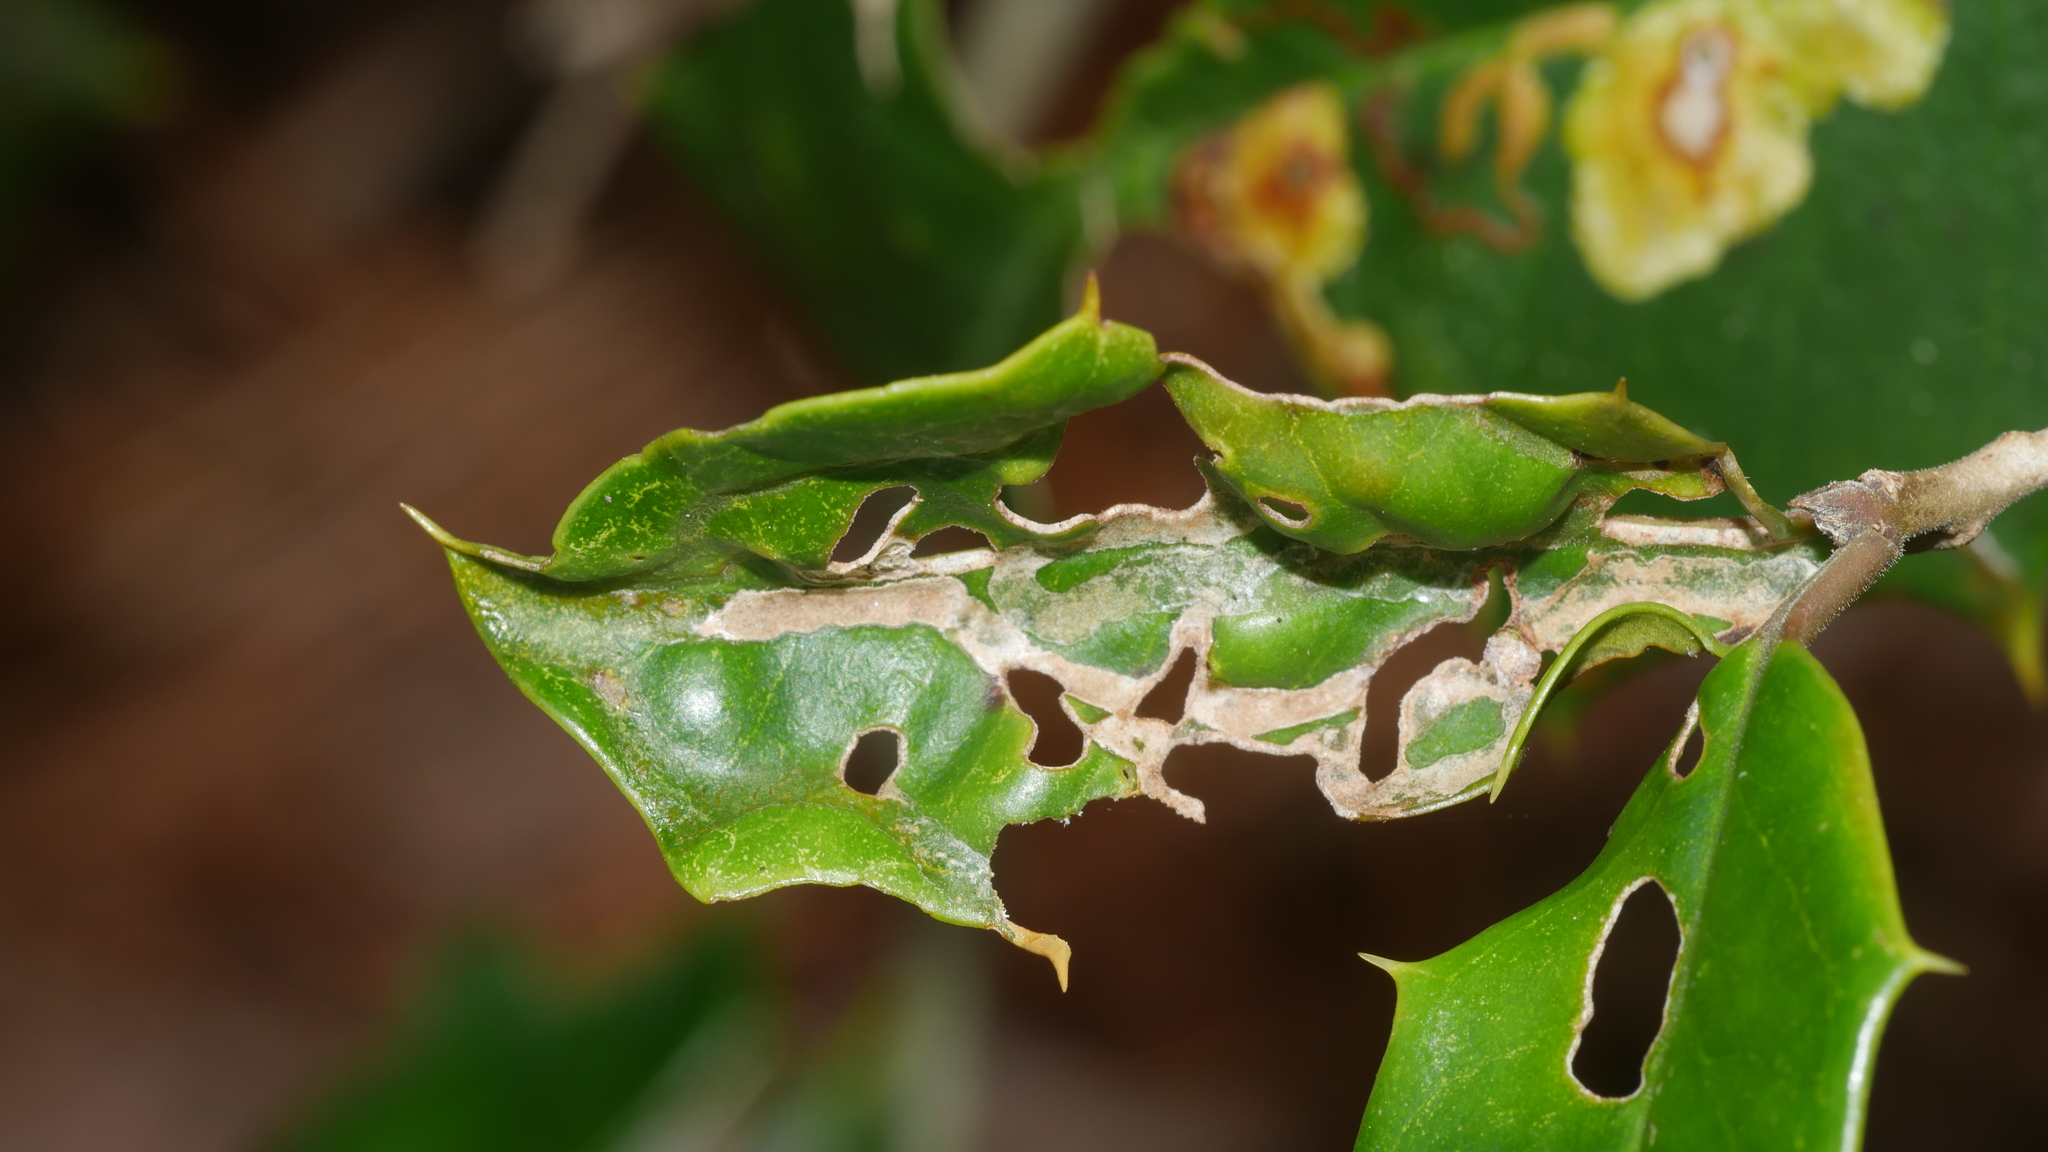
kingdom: Animalia
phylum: Arthropoda
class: Insecta
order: Diptera
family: Agromyzidae
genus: Phytomyza
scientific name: Phytomyza opacae
